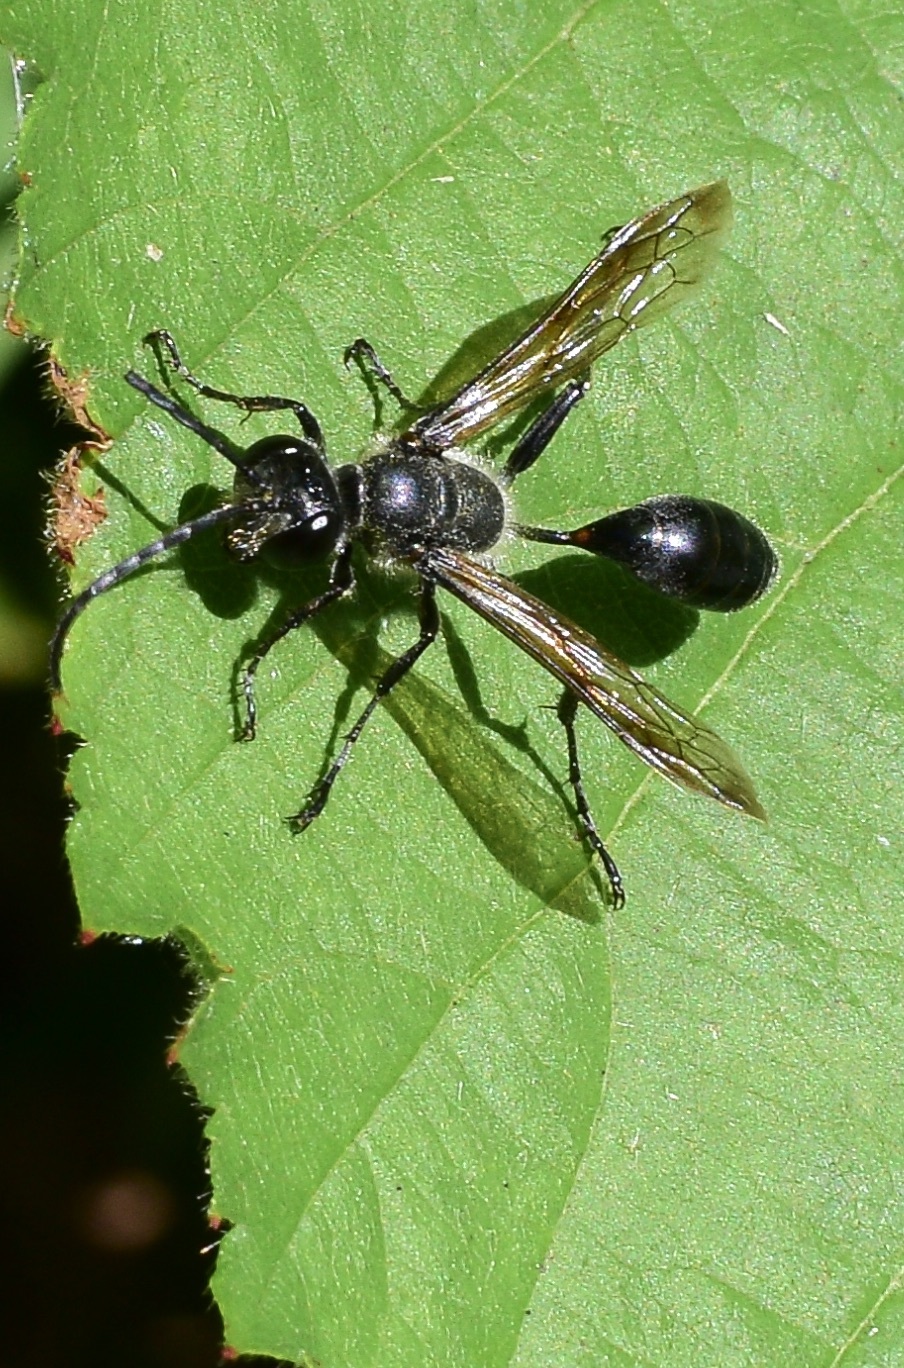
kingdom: Animalia
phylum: Arthropoda
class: Insecta
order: Hymenoptera
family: Sphecidae
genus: Isodontia
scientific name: Isodontia mexicana
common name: Mud dauber
